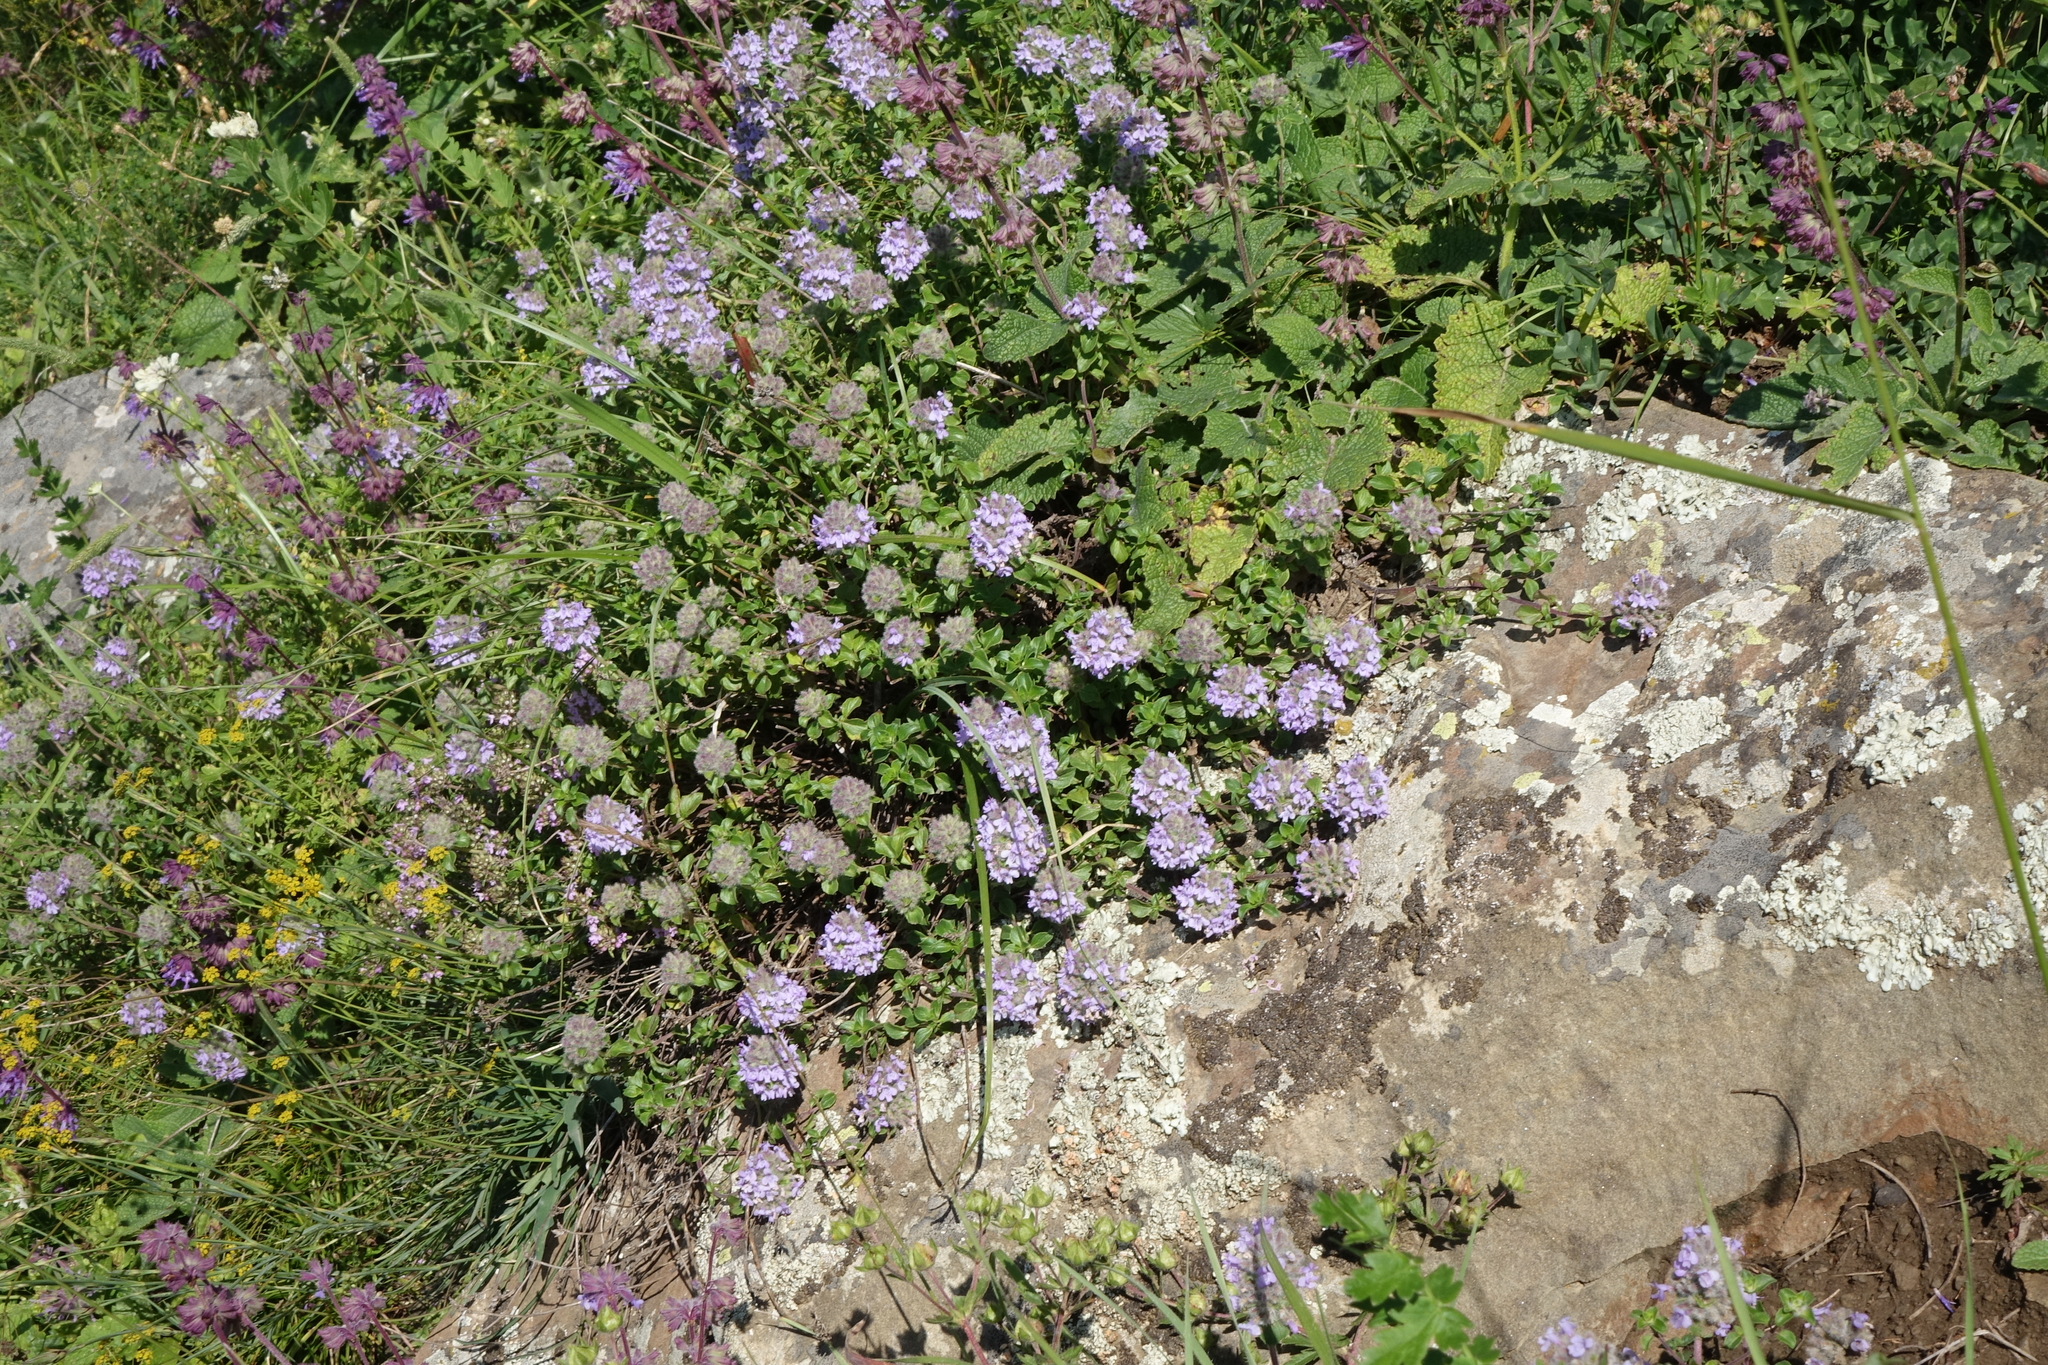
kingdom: Plantae
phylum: Tracheophyta
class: Magnoliopsida
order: Lamiales
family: Lamiaceae
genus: Ziziphora
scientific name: Ziziphora clinopodioides
